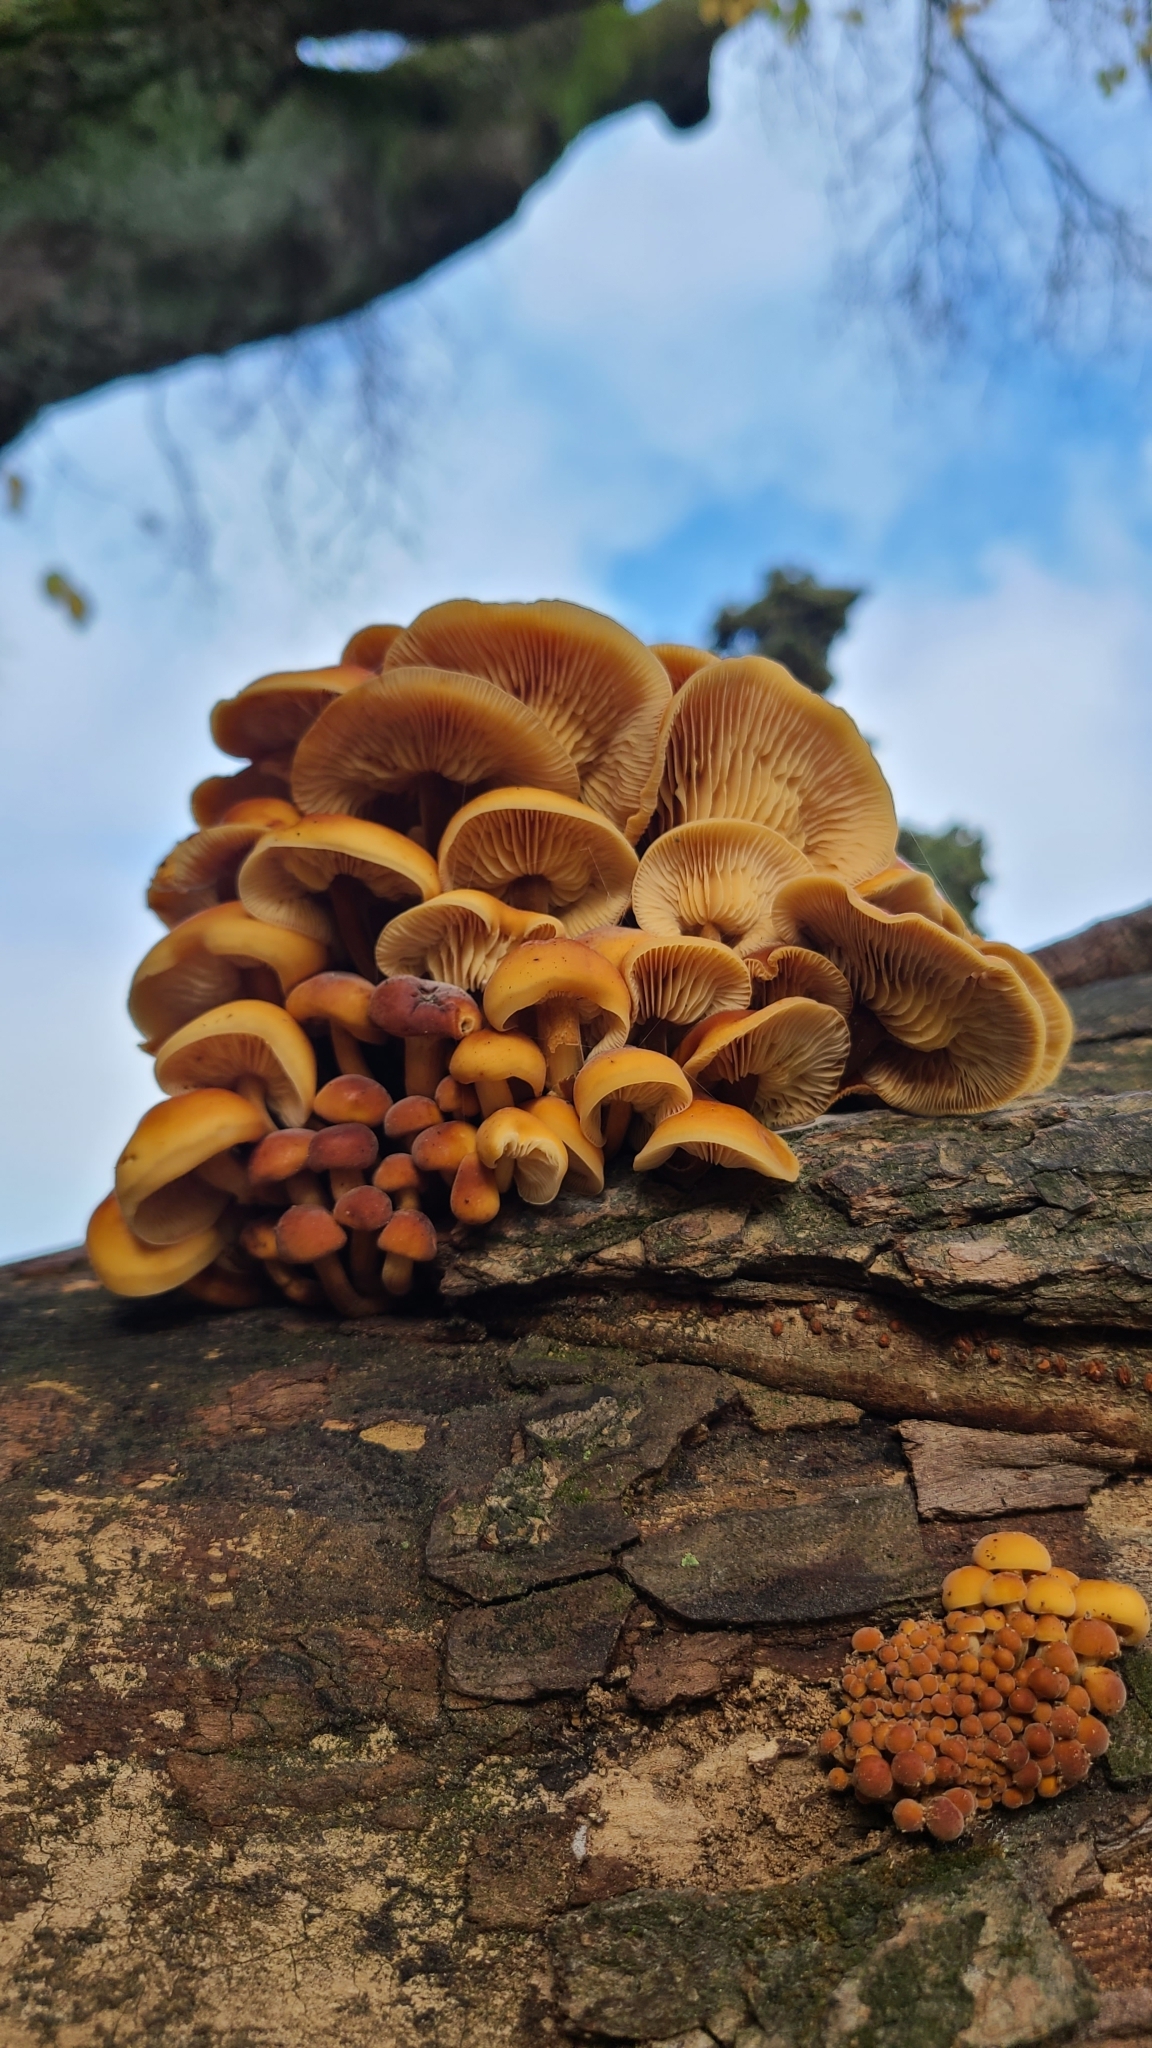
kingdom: Fungi
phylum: Basidiomycota
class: Agaricomycetes
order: Agaricales
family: Physalacriaceae
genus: Flammulina
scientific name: Flammulina velutipes
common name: Velvet shank
